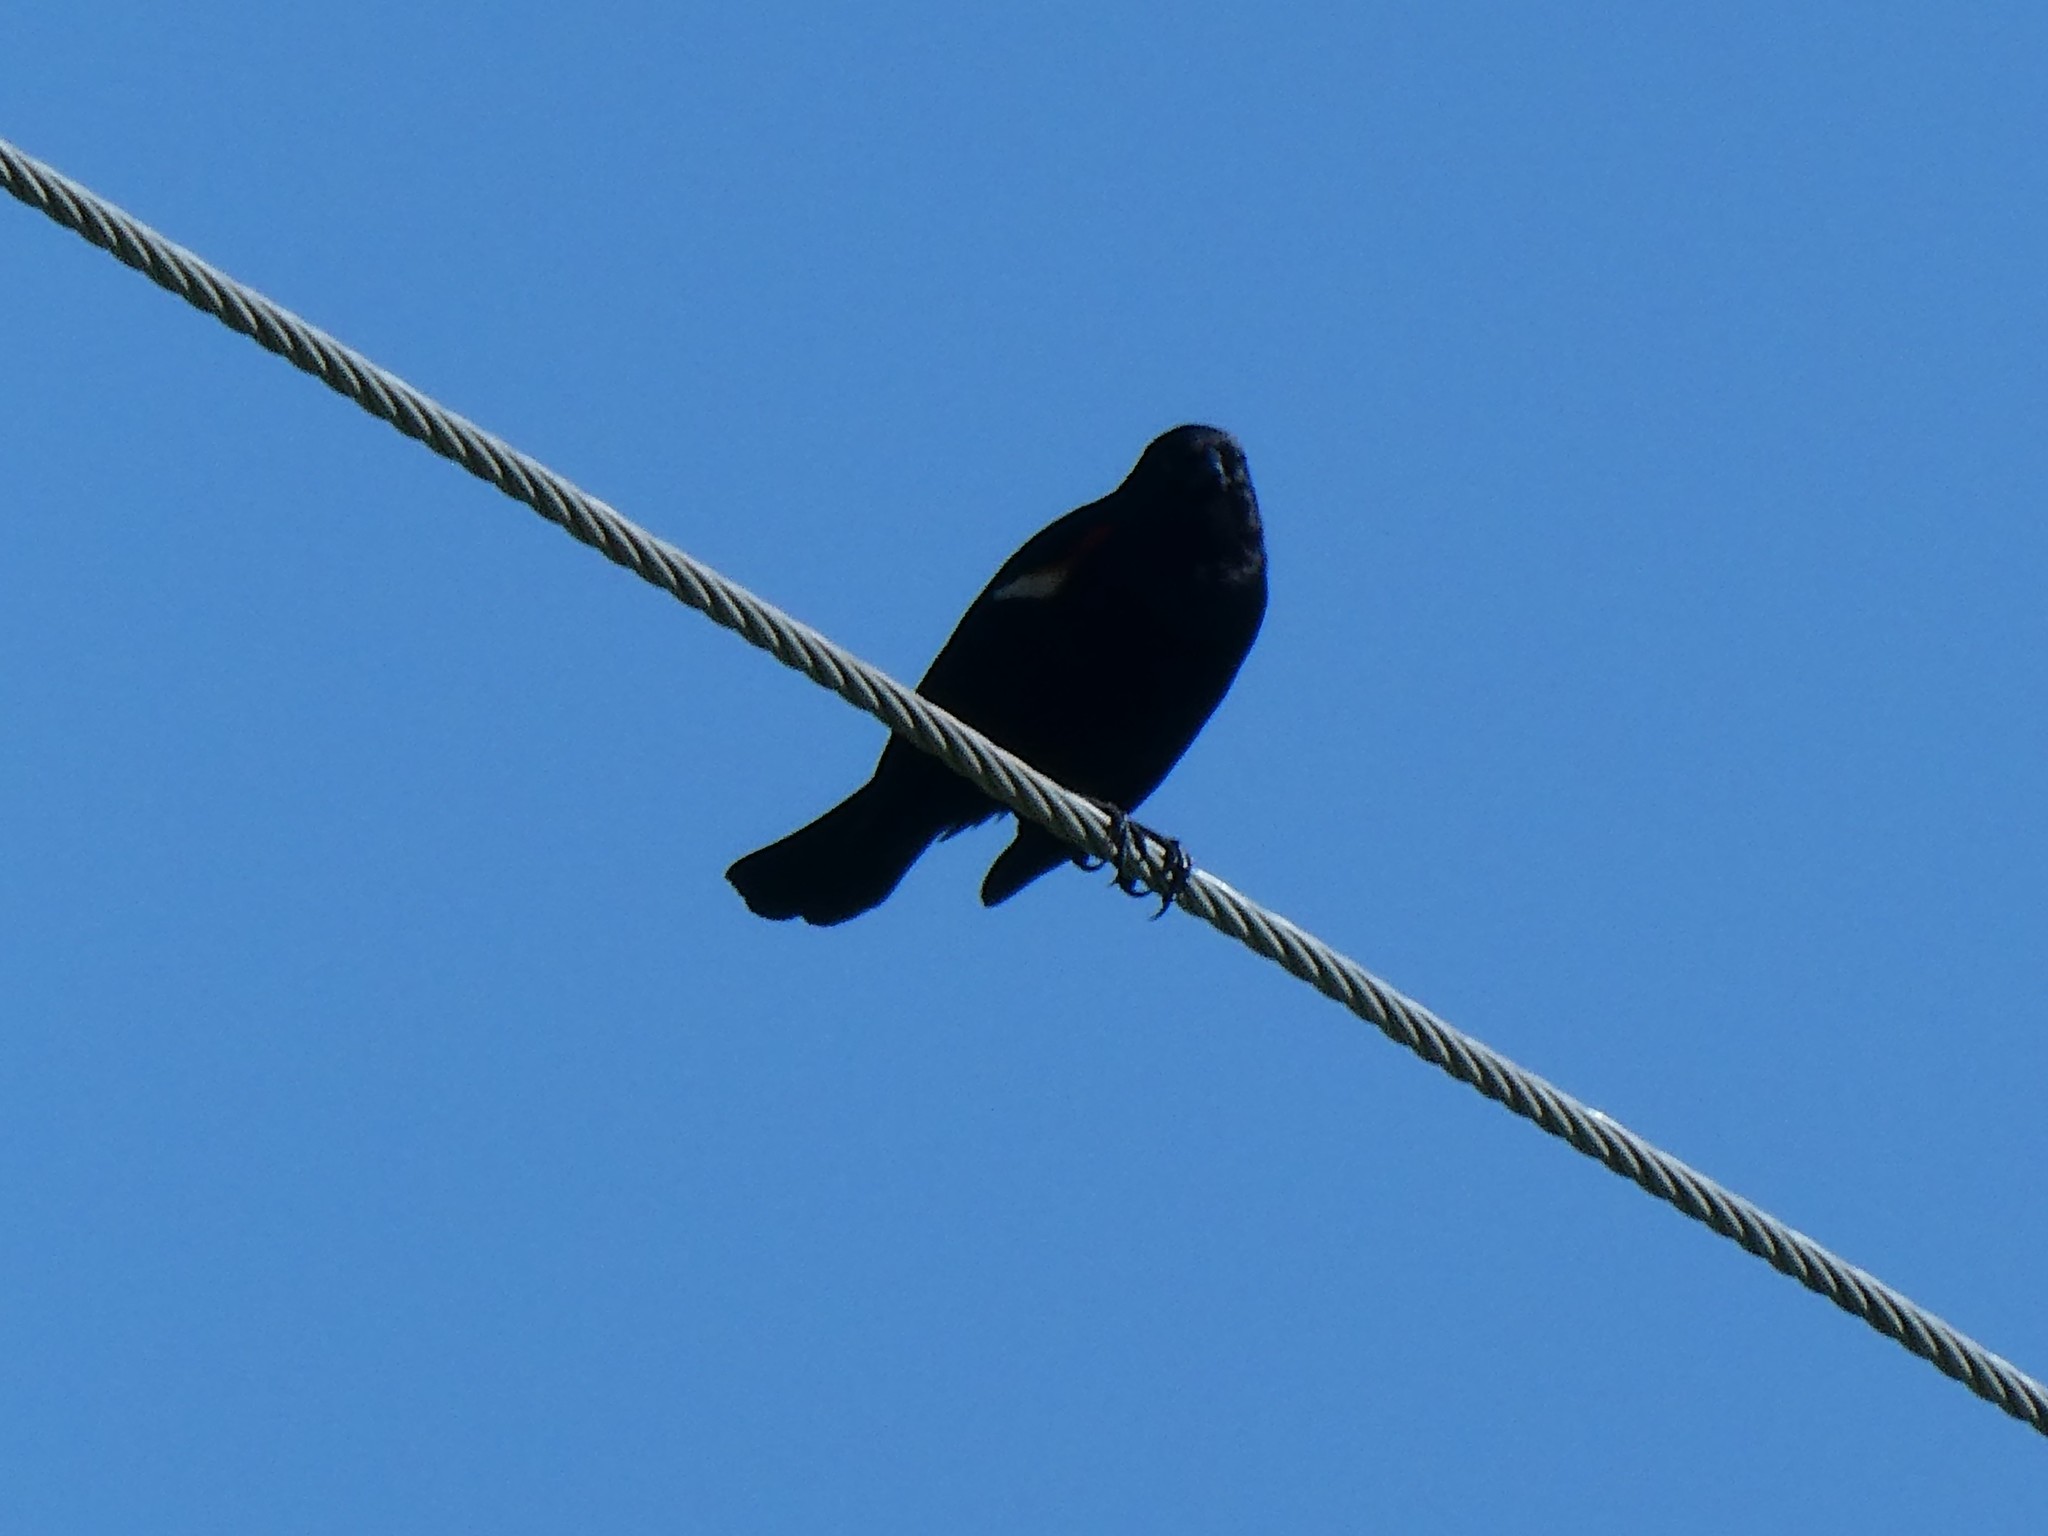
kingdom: Animalia
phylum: Chordata
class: Aves
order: Passeriformes
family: Icteridae
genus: Agelaius
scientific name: Agelaius phoeniceus
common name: Red-winged blackbird
